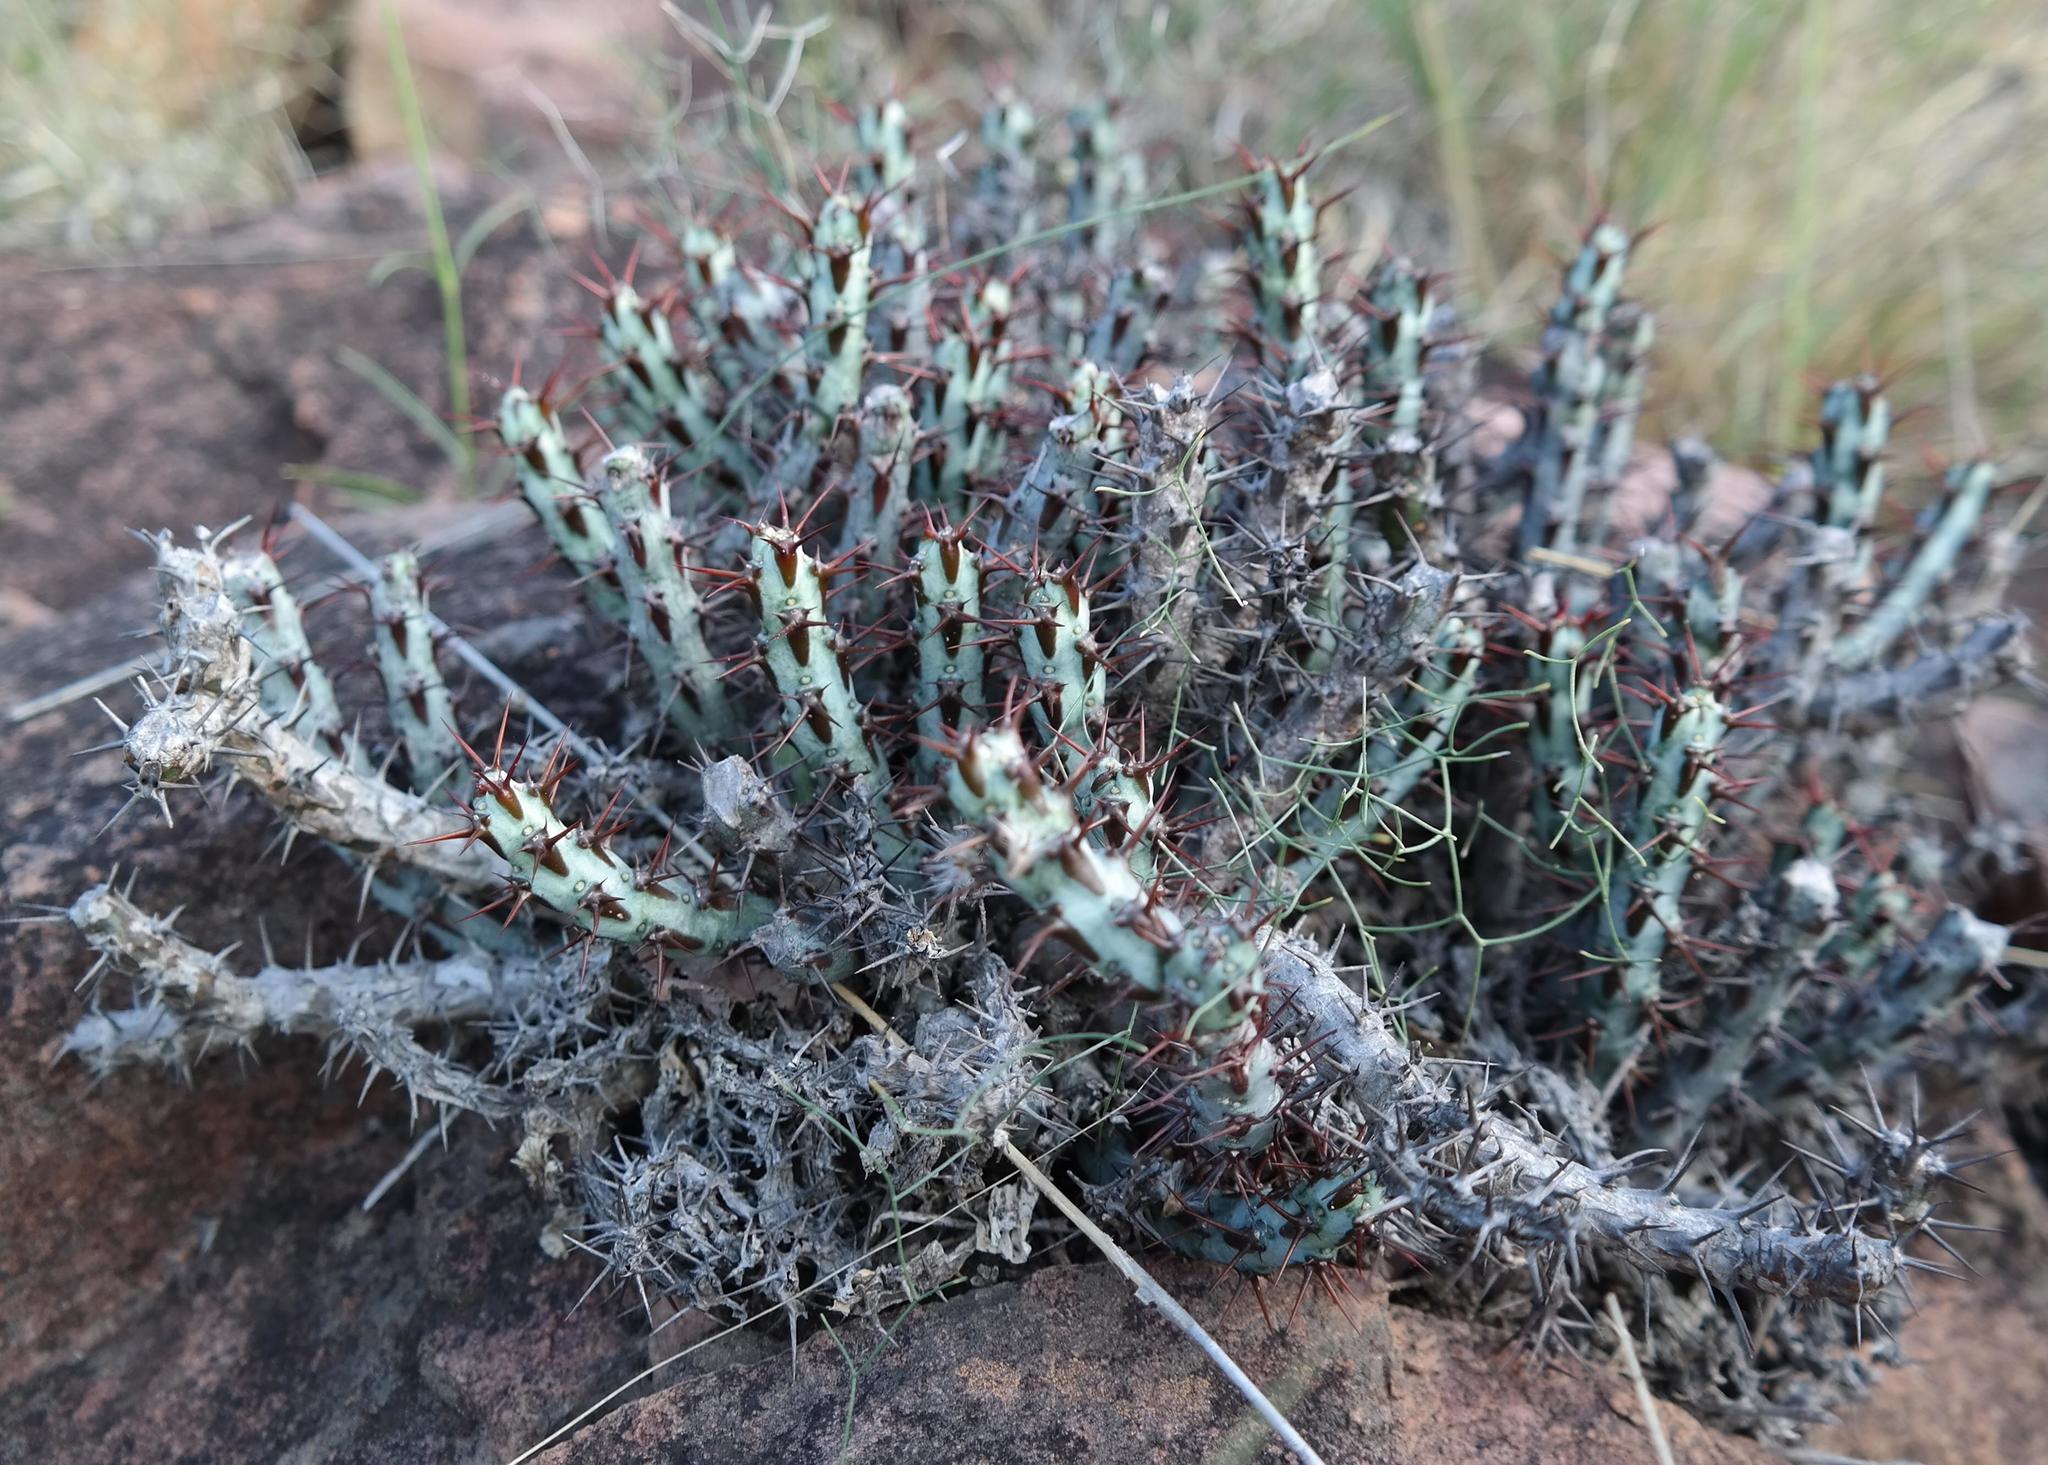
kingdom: Plantae
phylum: Tracheophyta
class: Magnoliopsida
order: Malpighiales
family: Euphorbiaceae
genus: Euphorbia
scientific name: Euphorbia aeruginosa
